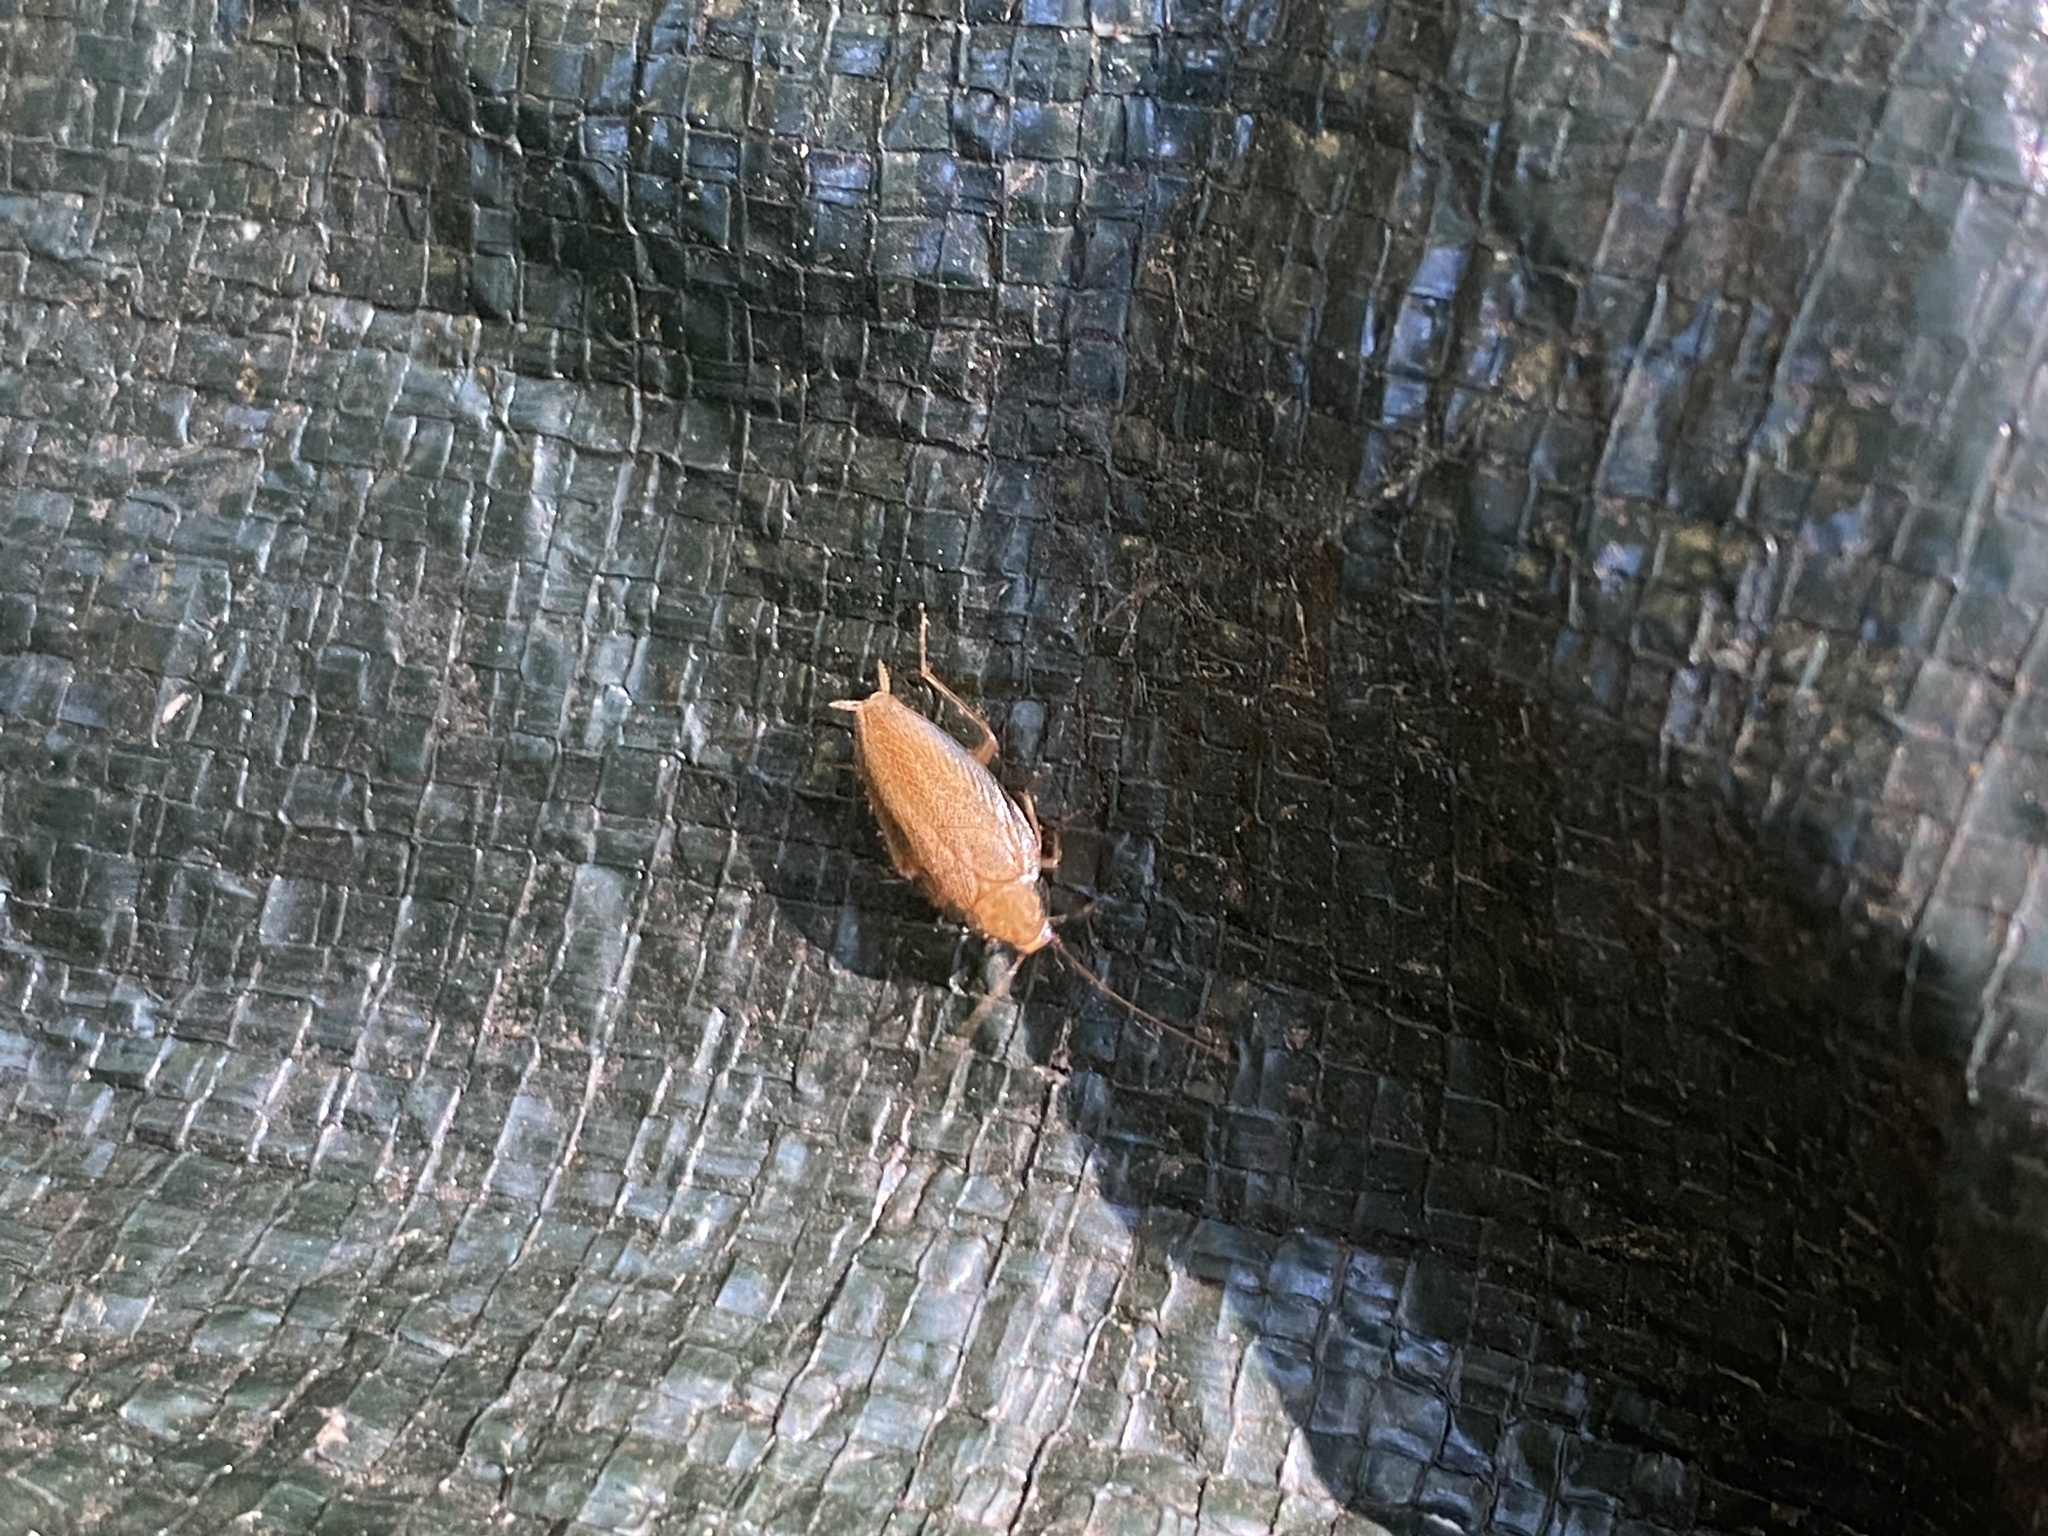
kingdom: Animalia
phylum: Arthropoda
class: Insecta
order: Blattodea
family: Ectobiidae
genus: Ectobius
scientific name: Ectobius pallidus
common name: Tawny cockroach
